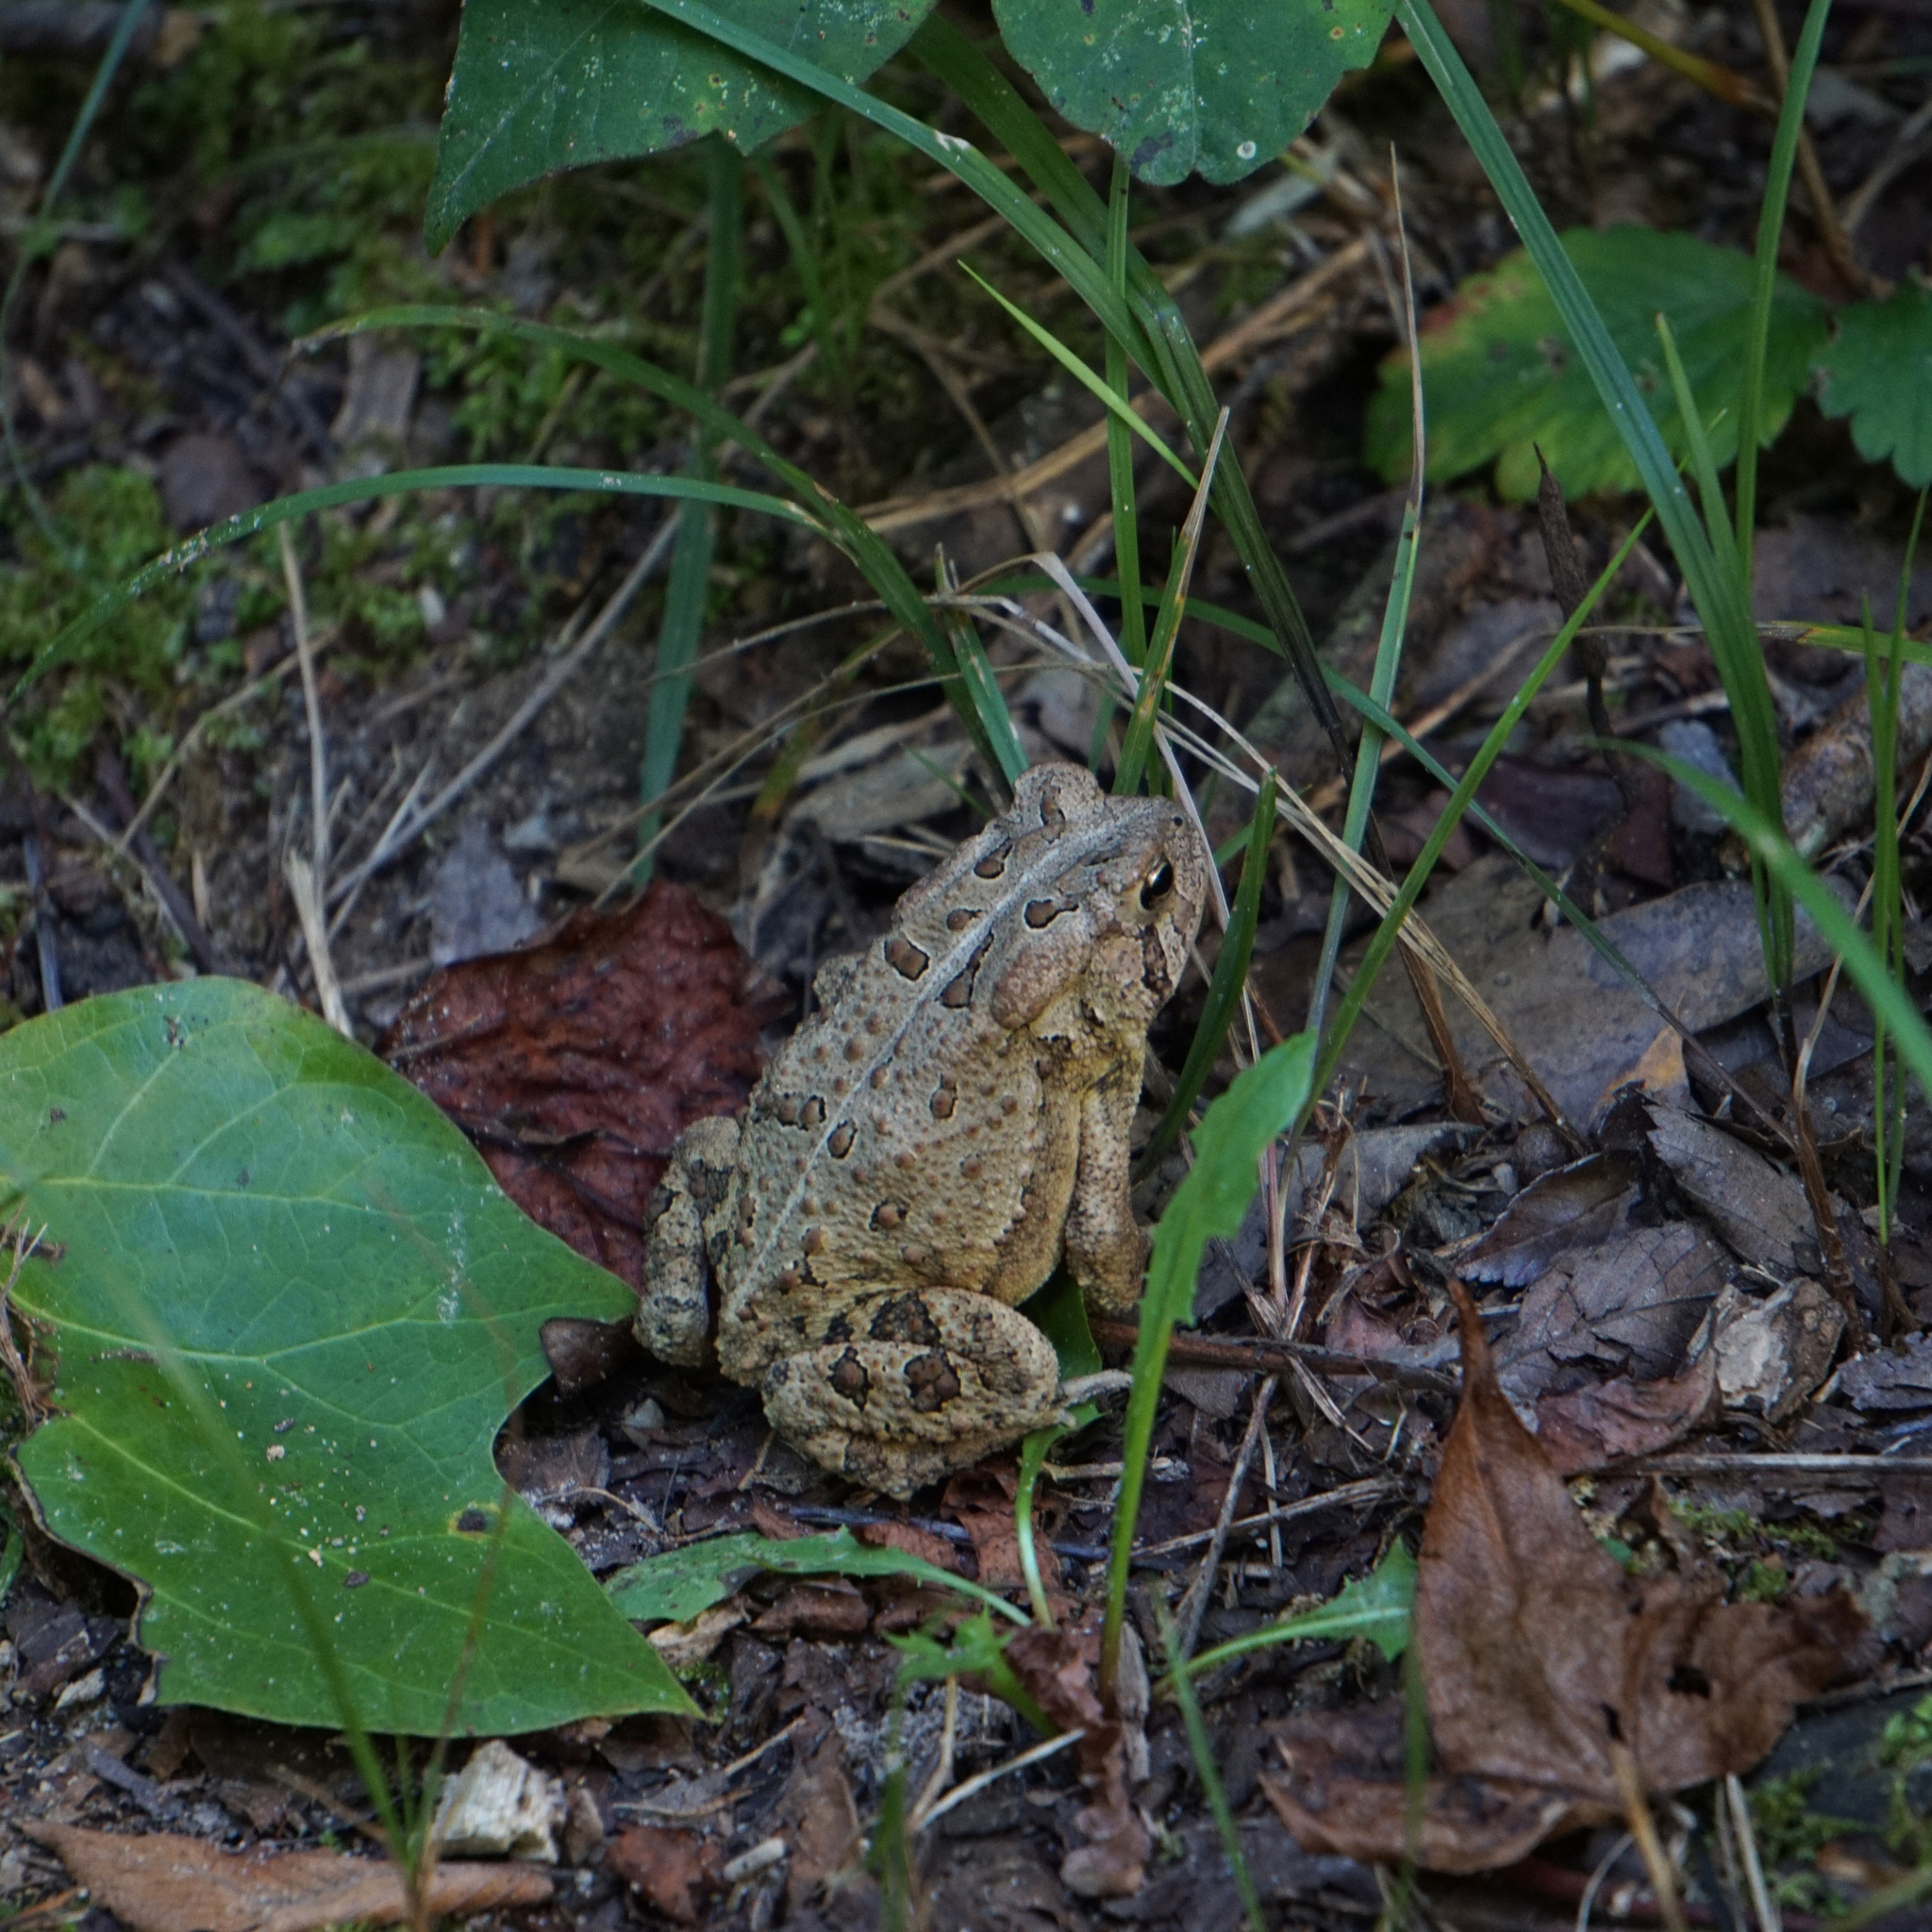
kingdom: Animalia
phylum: Chordata
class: Amphibia
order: Anura
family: Bufonidae
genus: Anaxyrus
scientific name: Anaxyrus americanus
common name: American toad
